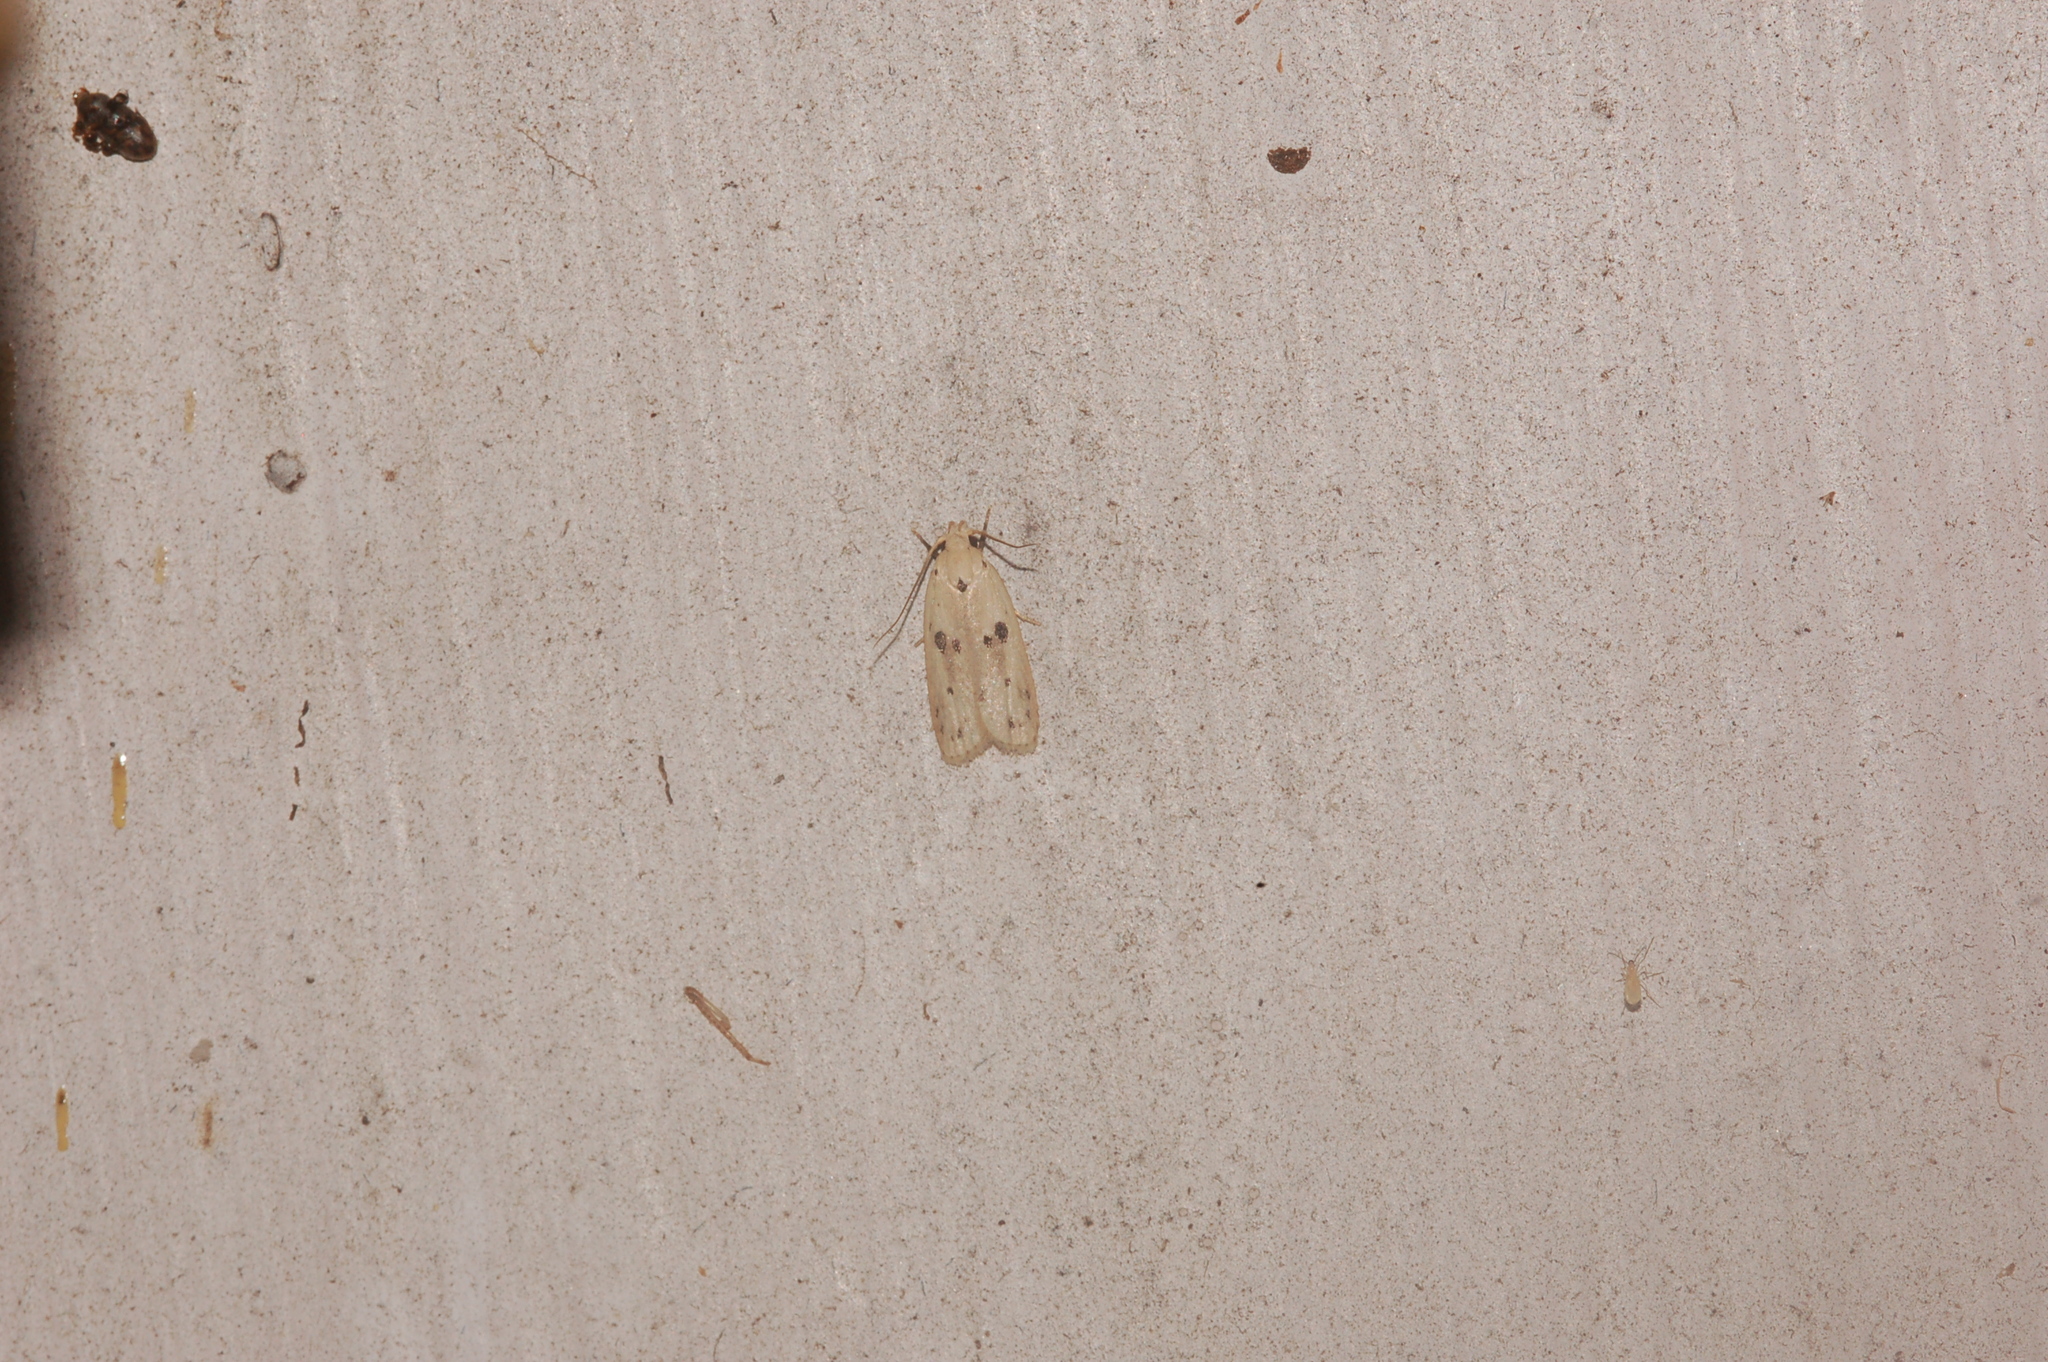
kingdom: Animalia
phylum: Arthropoda
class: Insecta
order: Lepidoptera
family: Peleopodidae
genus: Scythropiodes
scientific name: Scythropiodes issikii
